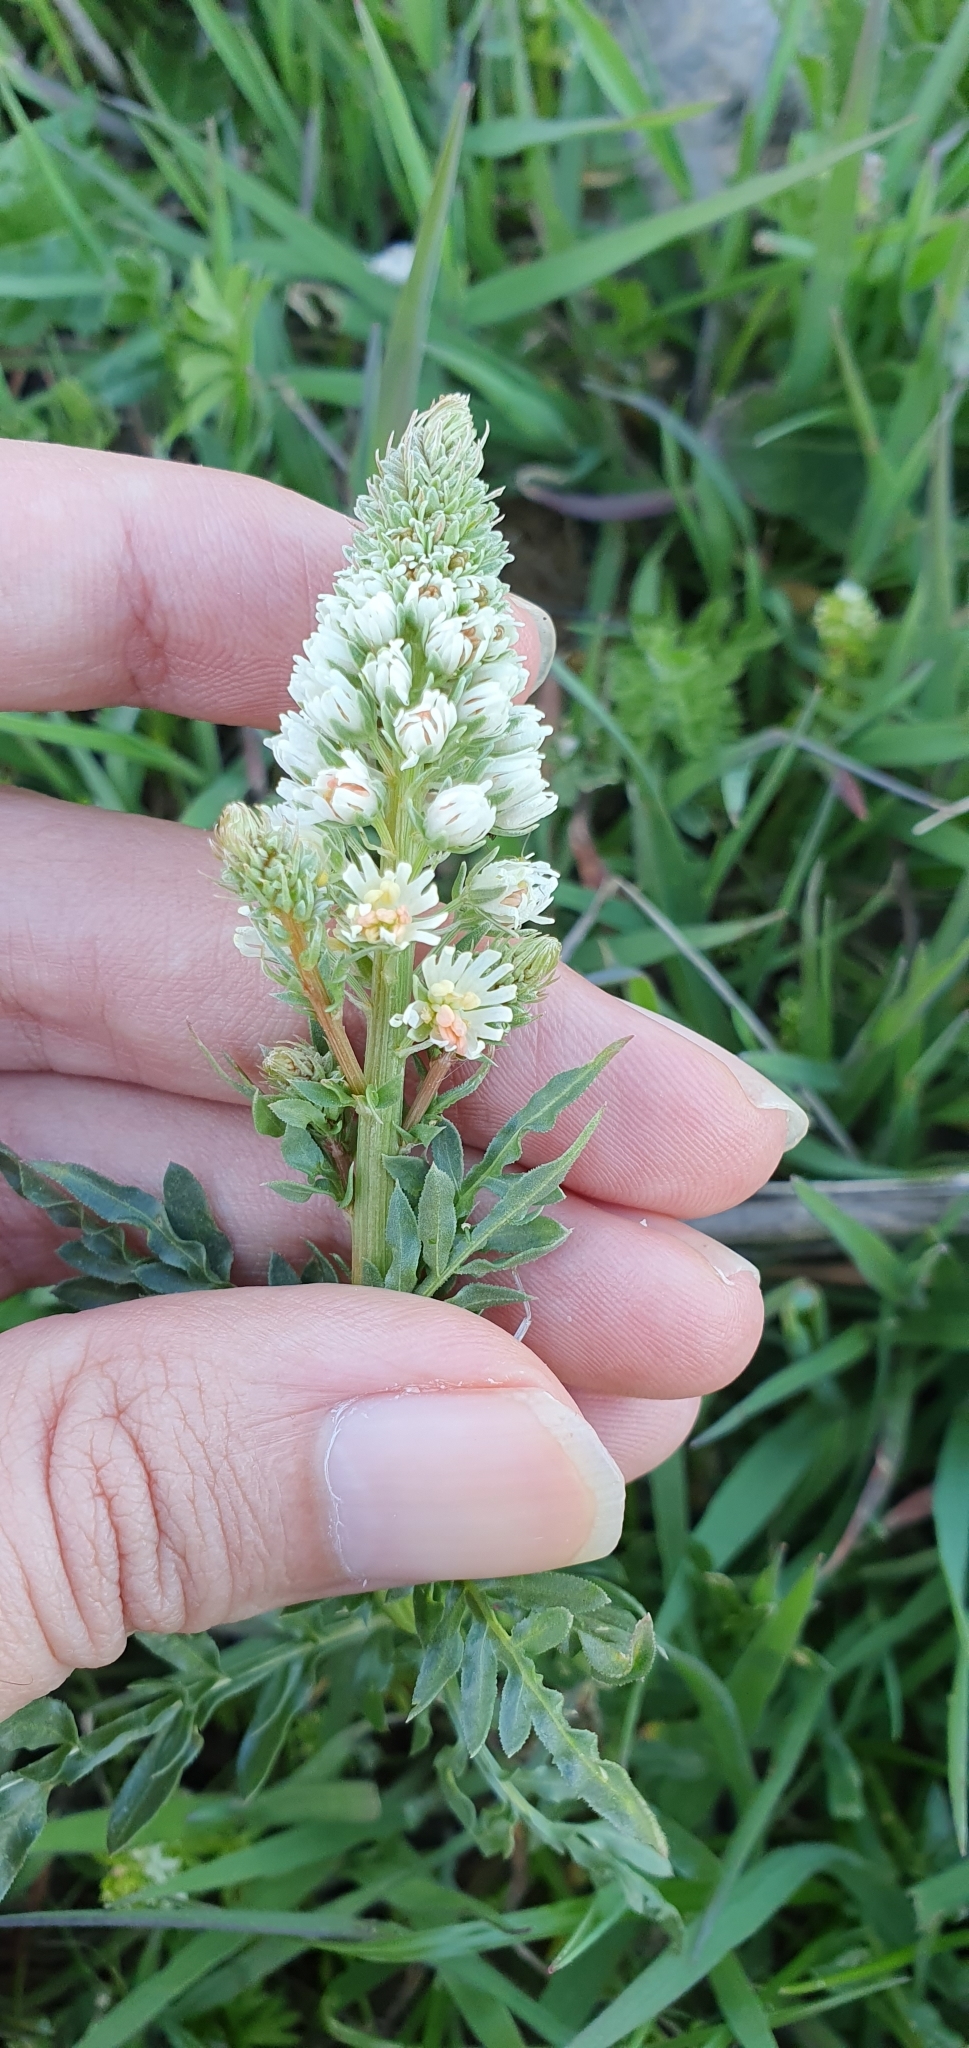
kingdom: Plantae
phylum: Tracheophyta
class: Magnoliopsida
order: Brassicales
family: Resedaceae
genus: Reseda
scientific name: Reseda alba
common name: White mignonette
